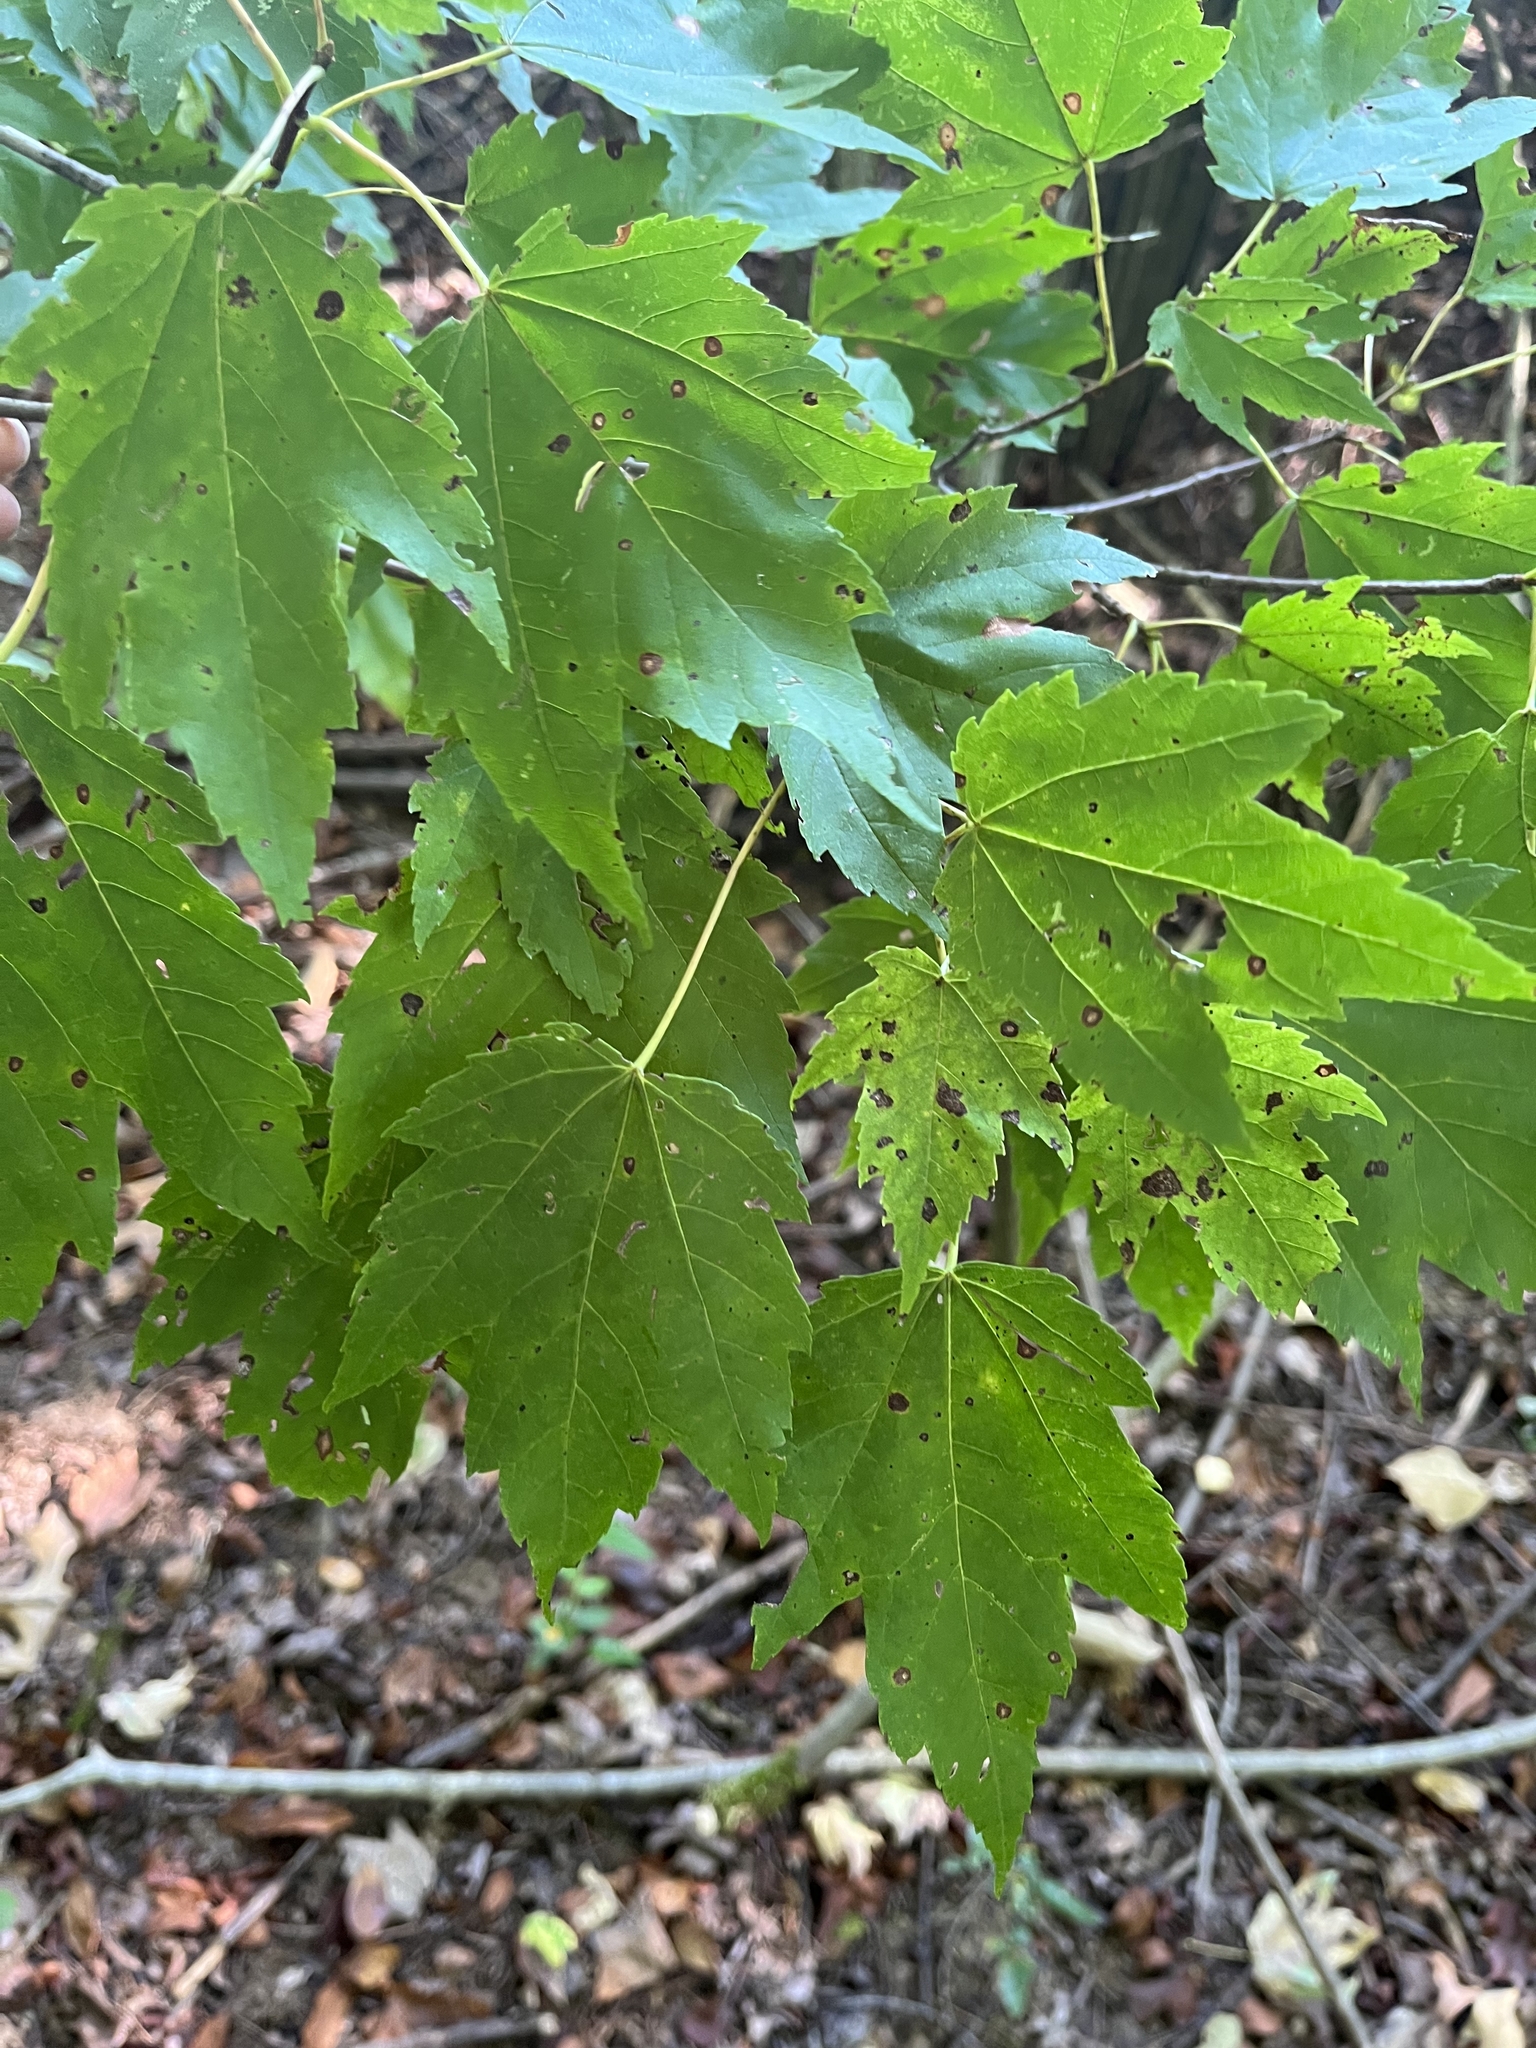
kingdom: Plantae
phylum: Tracheophyta
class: Magnoliopsida
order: Sapindales
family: Sapindaceae
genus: Acer
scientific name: Acer rubrum
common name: Red maple
